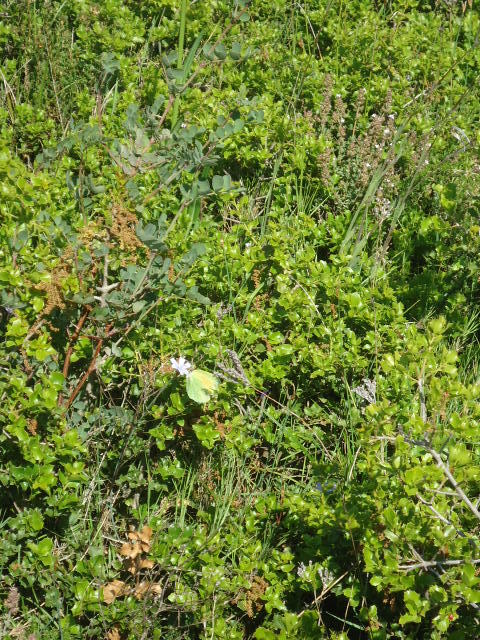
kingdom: Animalia
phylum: Arthropoda
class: Insecta
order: Lepidoptera
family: Pieridae
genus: Gonepteryx
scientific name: Gonepteryx cleopatra
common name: Cleopatra
